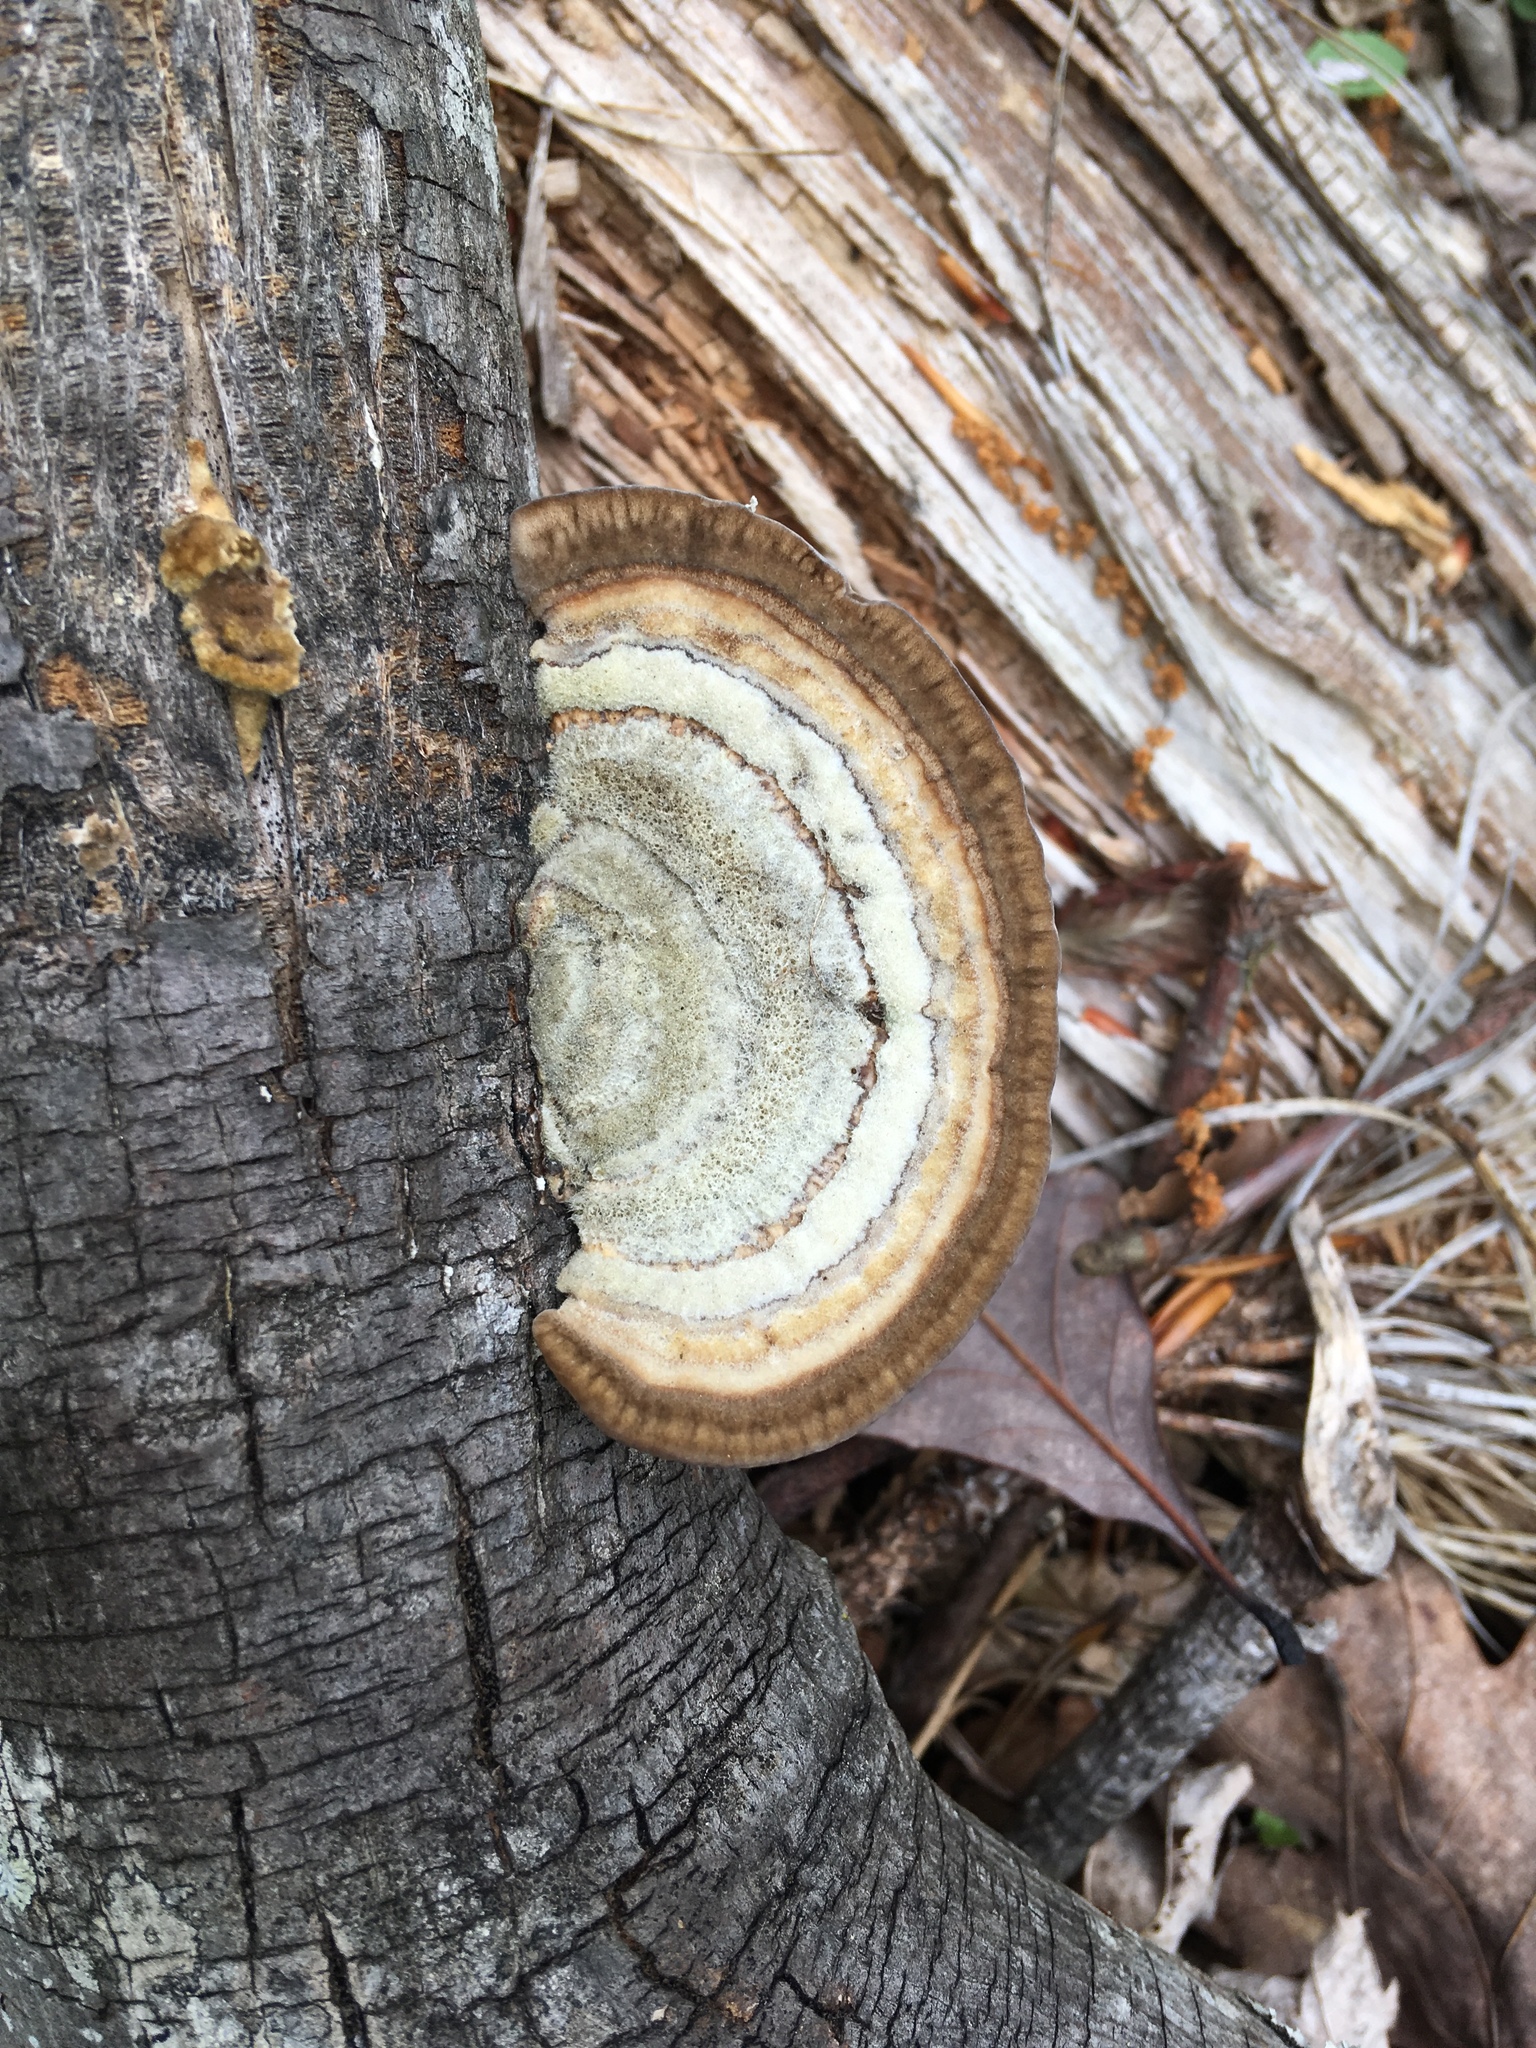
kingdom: Fungi
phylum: Basidiomycota
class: Agaricomycetes
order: Polyporales
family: Polyporaceae
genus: Trametes
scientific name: Trametes hirsuta
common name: Hairy bracket
